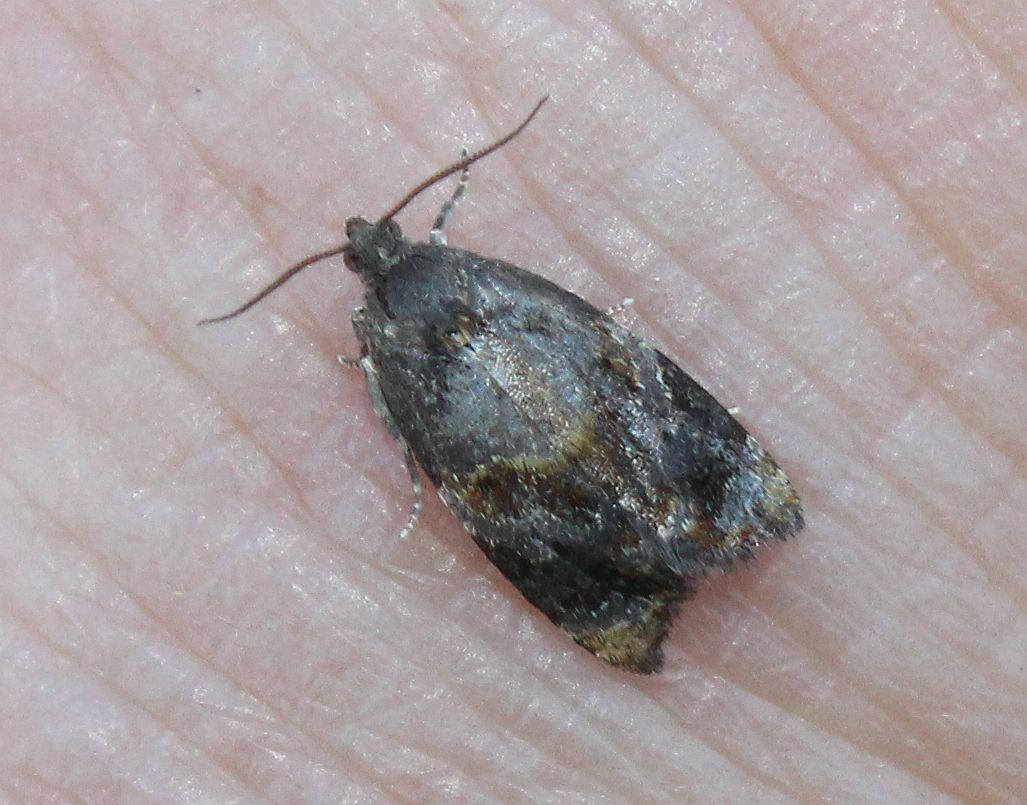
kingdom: Animalia
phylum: Arthropoda
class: Insecta
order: Lepidoptera
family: Tortricidae
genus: Ditula
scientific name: Ditula angustiorana
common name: Red-barred tortrix
